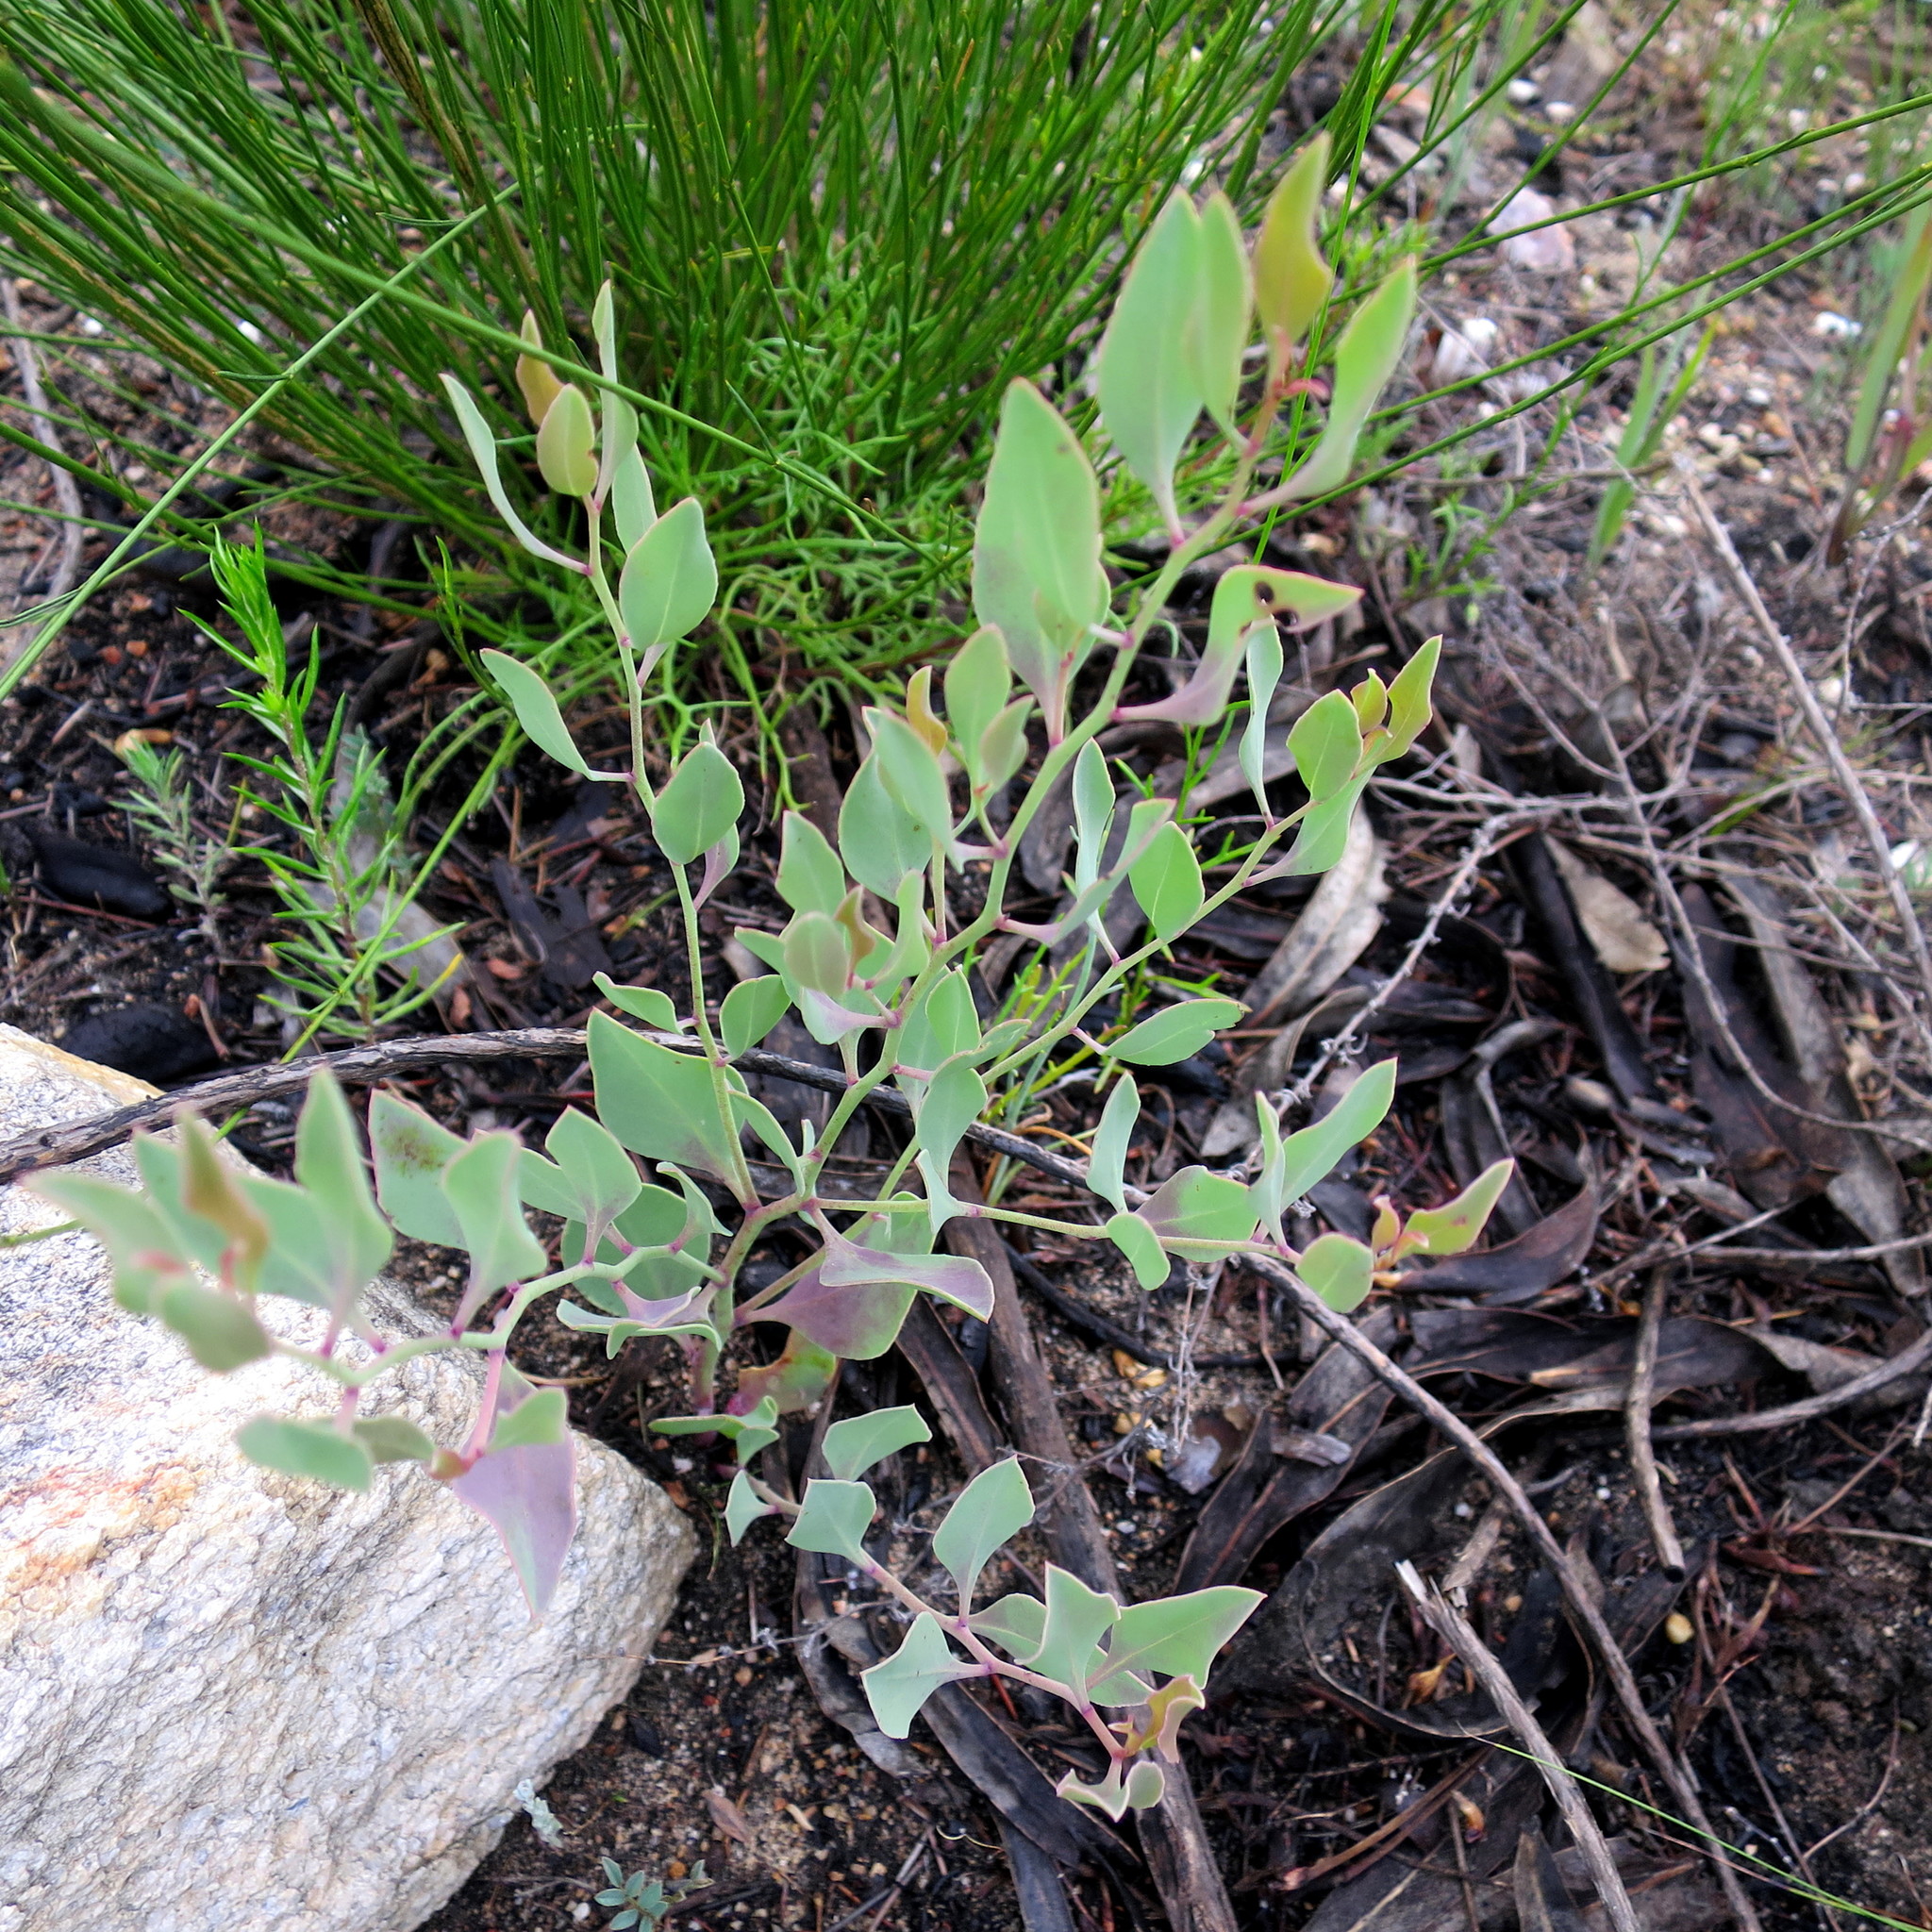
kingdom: Plantae
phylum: Tracheophyta
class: Magnoliopsida
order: Fabales
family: Fabaceae
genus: Rafnia
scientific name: Rafnia capensis
